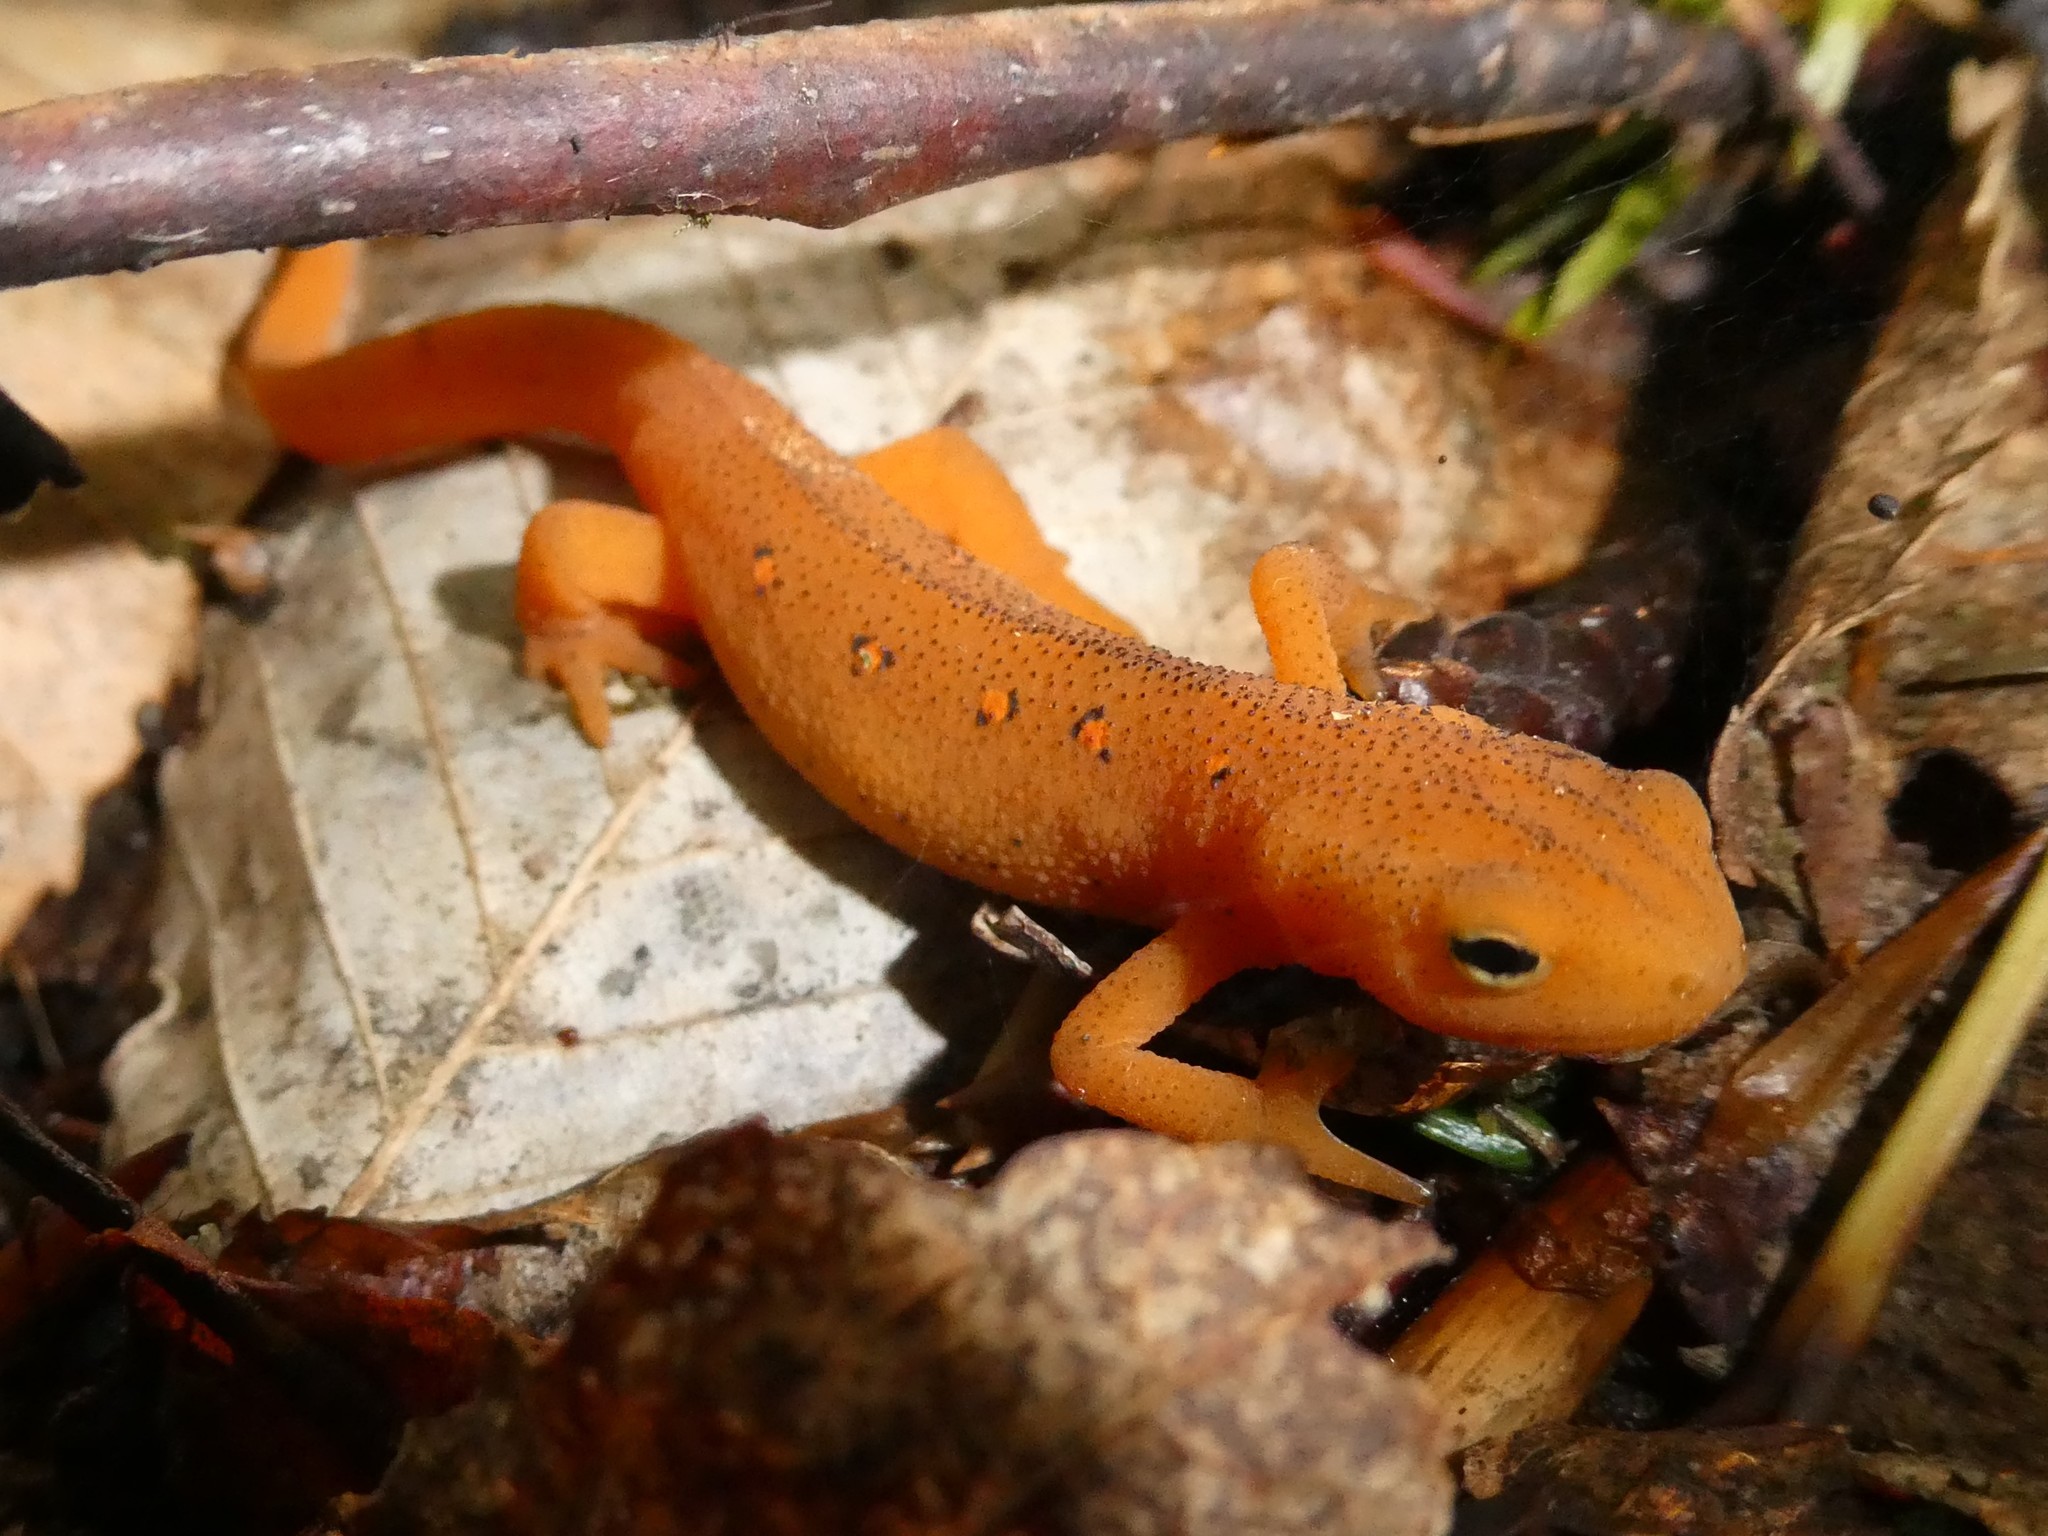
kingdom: Animalia
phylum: Chordata
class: Amphibia
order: Caudata
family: Salamandridae
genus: Notophthalmus
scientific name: Notophthalmus viridescens
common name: Eastern newt
